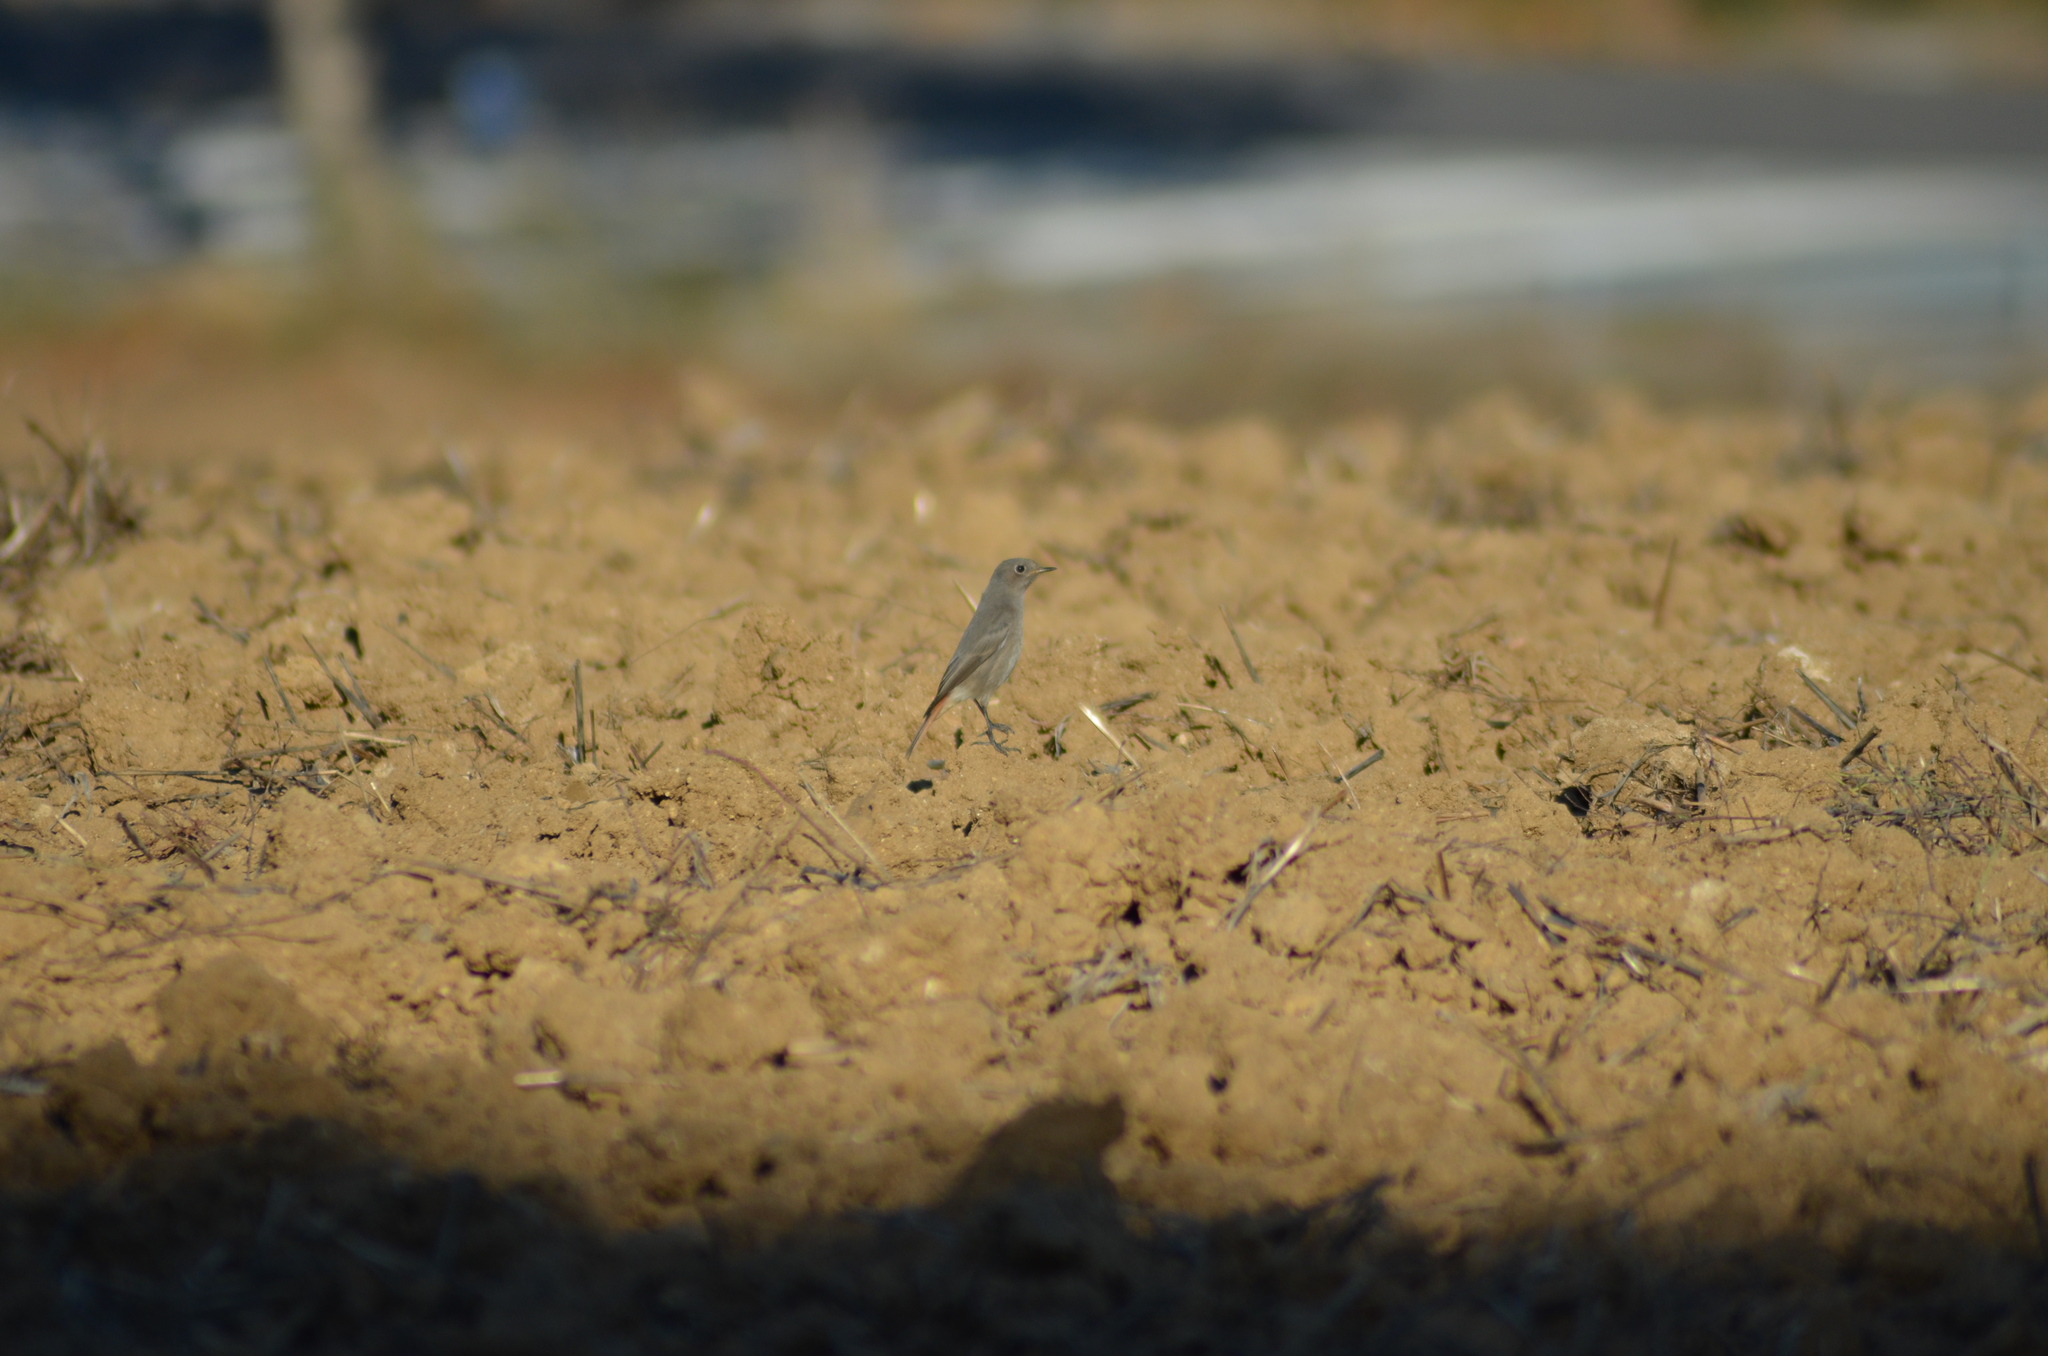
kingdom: Animalia
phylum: Chordata
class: Aves
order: Passeriformes
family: Muscicapidae
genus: Phoenicurus
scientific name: Phoenicurus ochruros
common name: Black redstart
